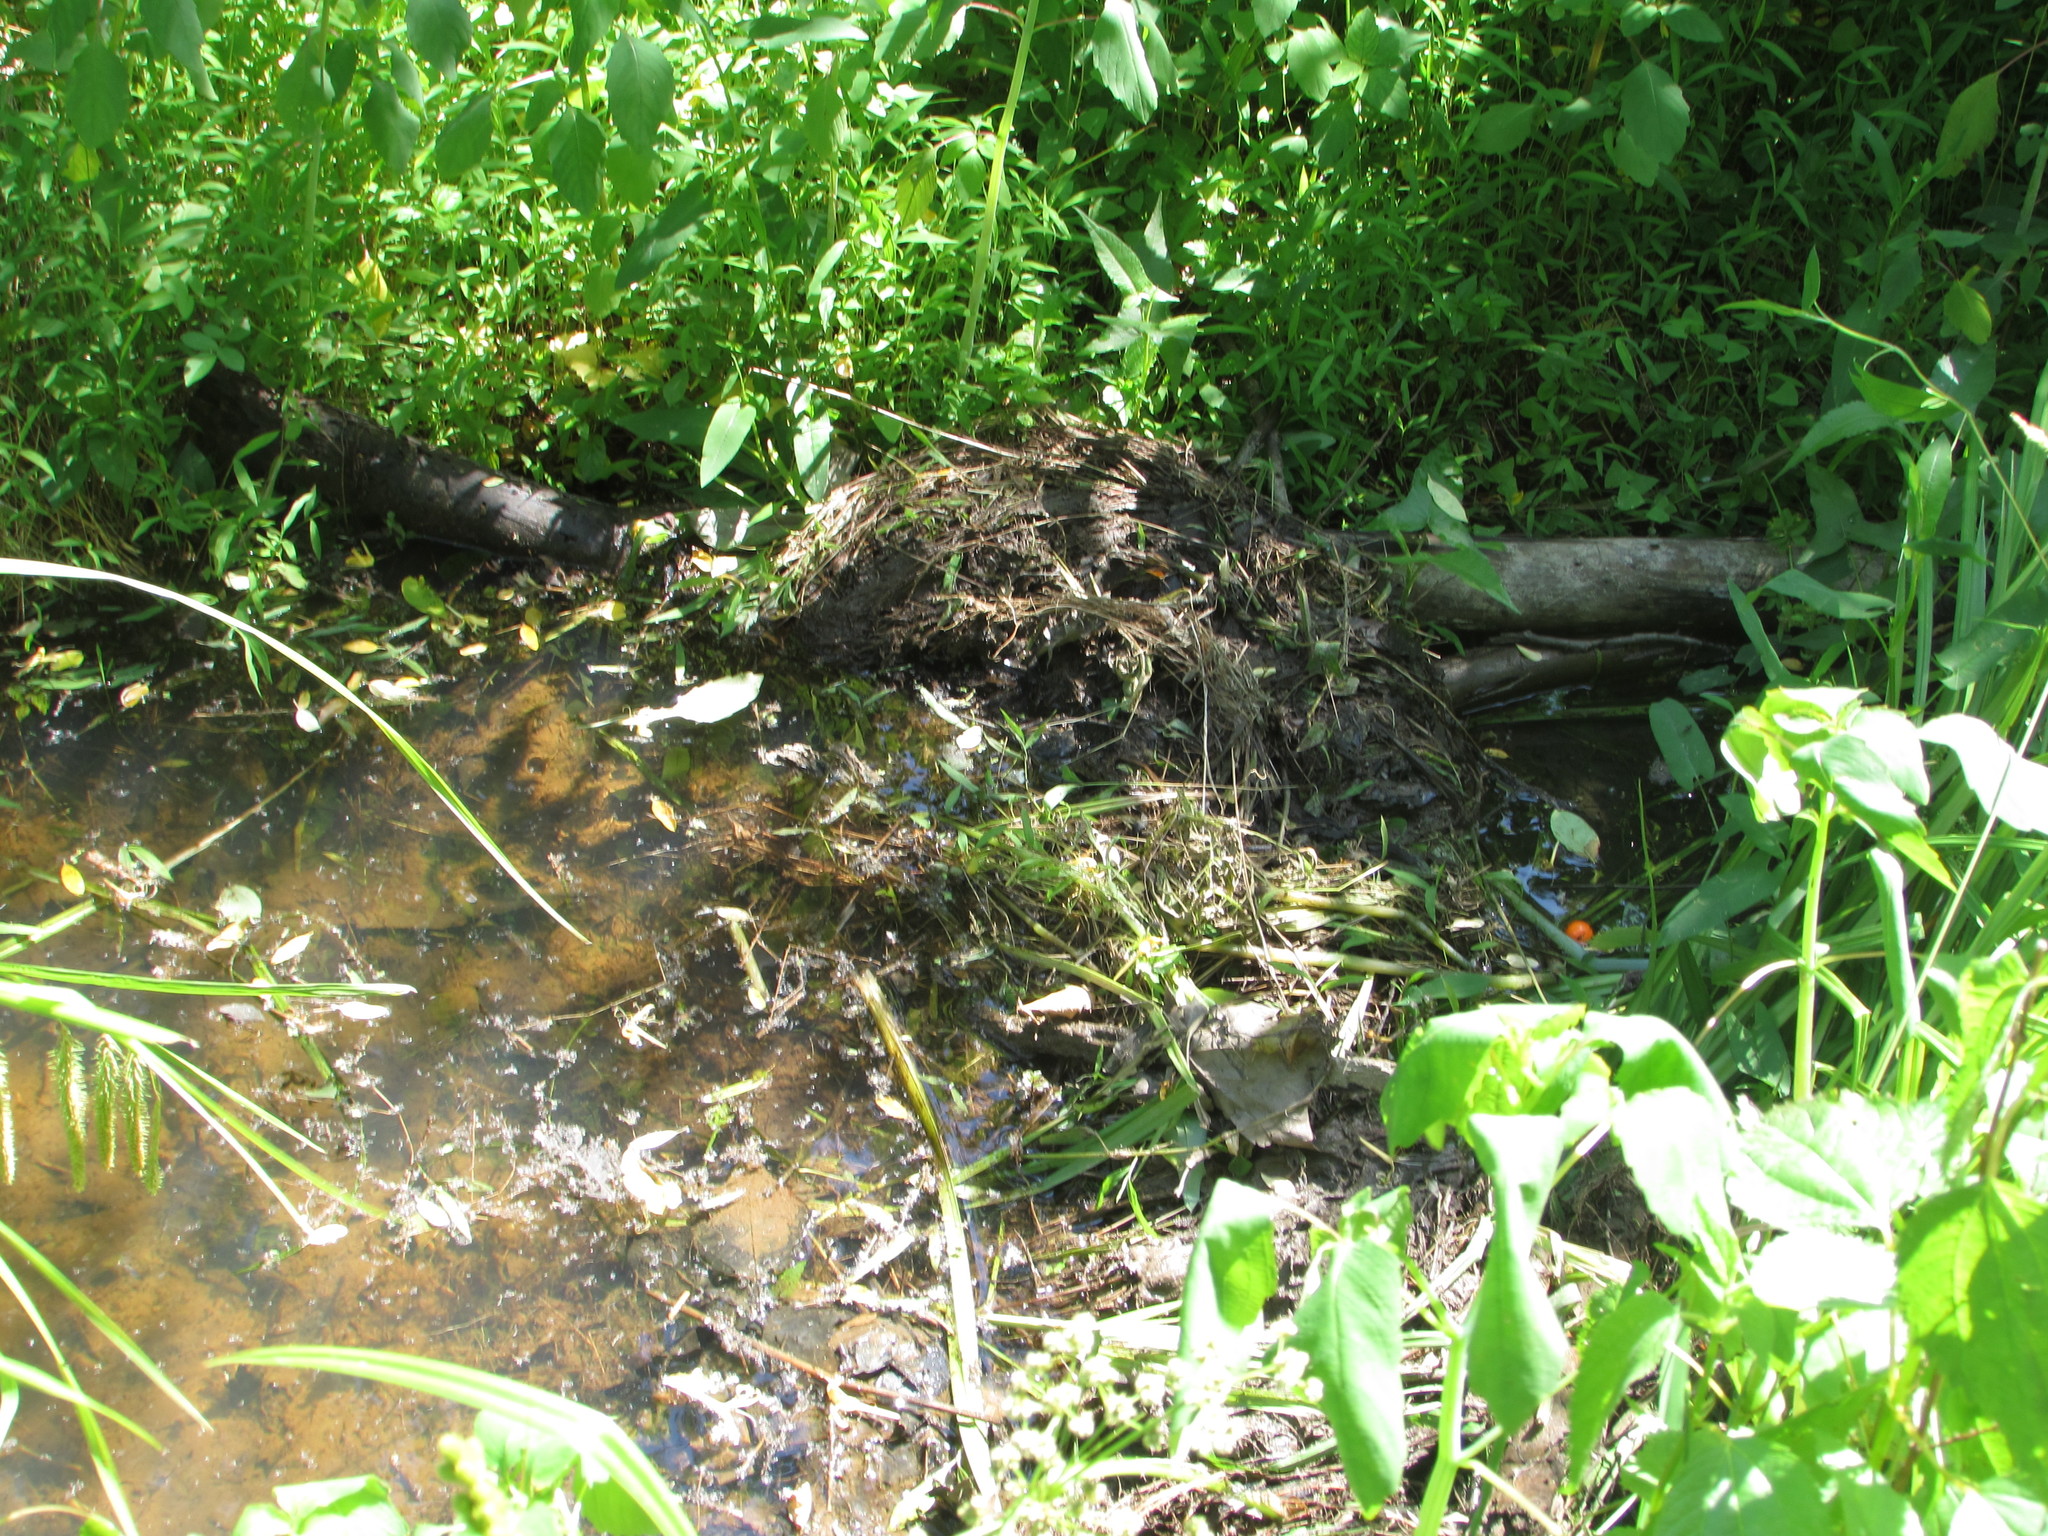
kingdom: Animalia
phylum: Chordata
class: Mammalia
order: Rodentia
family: Castoridae
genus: Castor
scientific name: Castor canadensis
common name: American beaver
